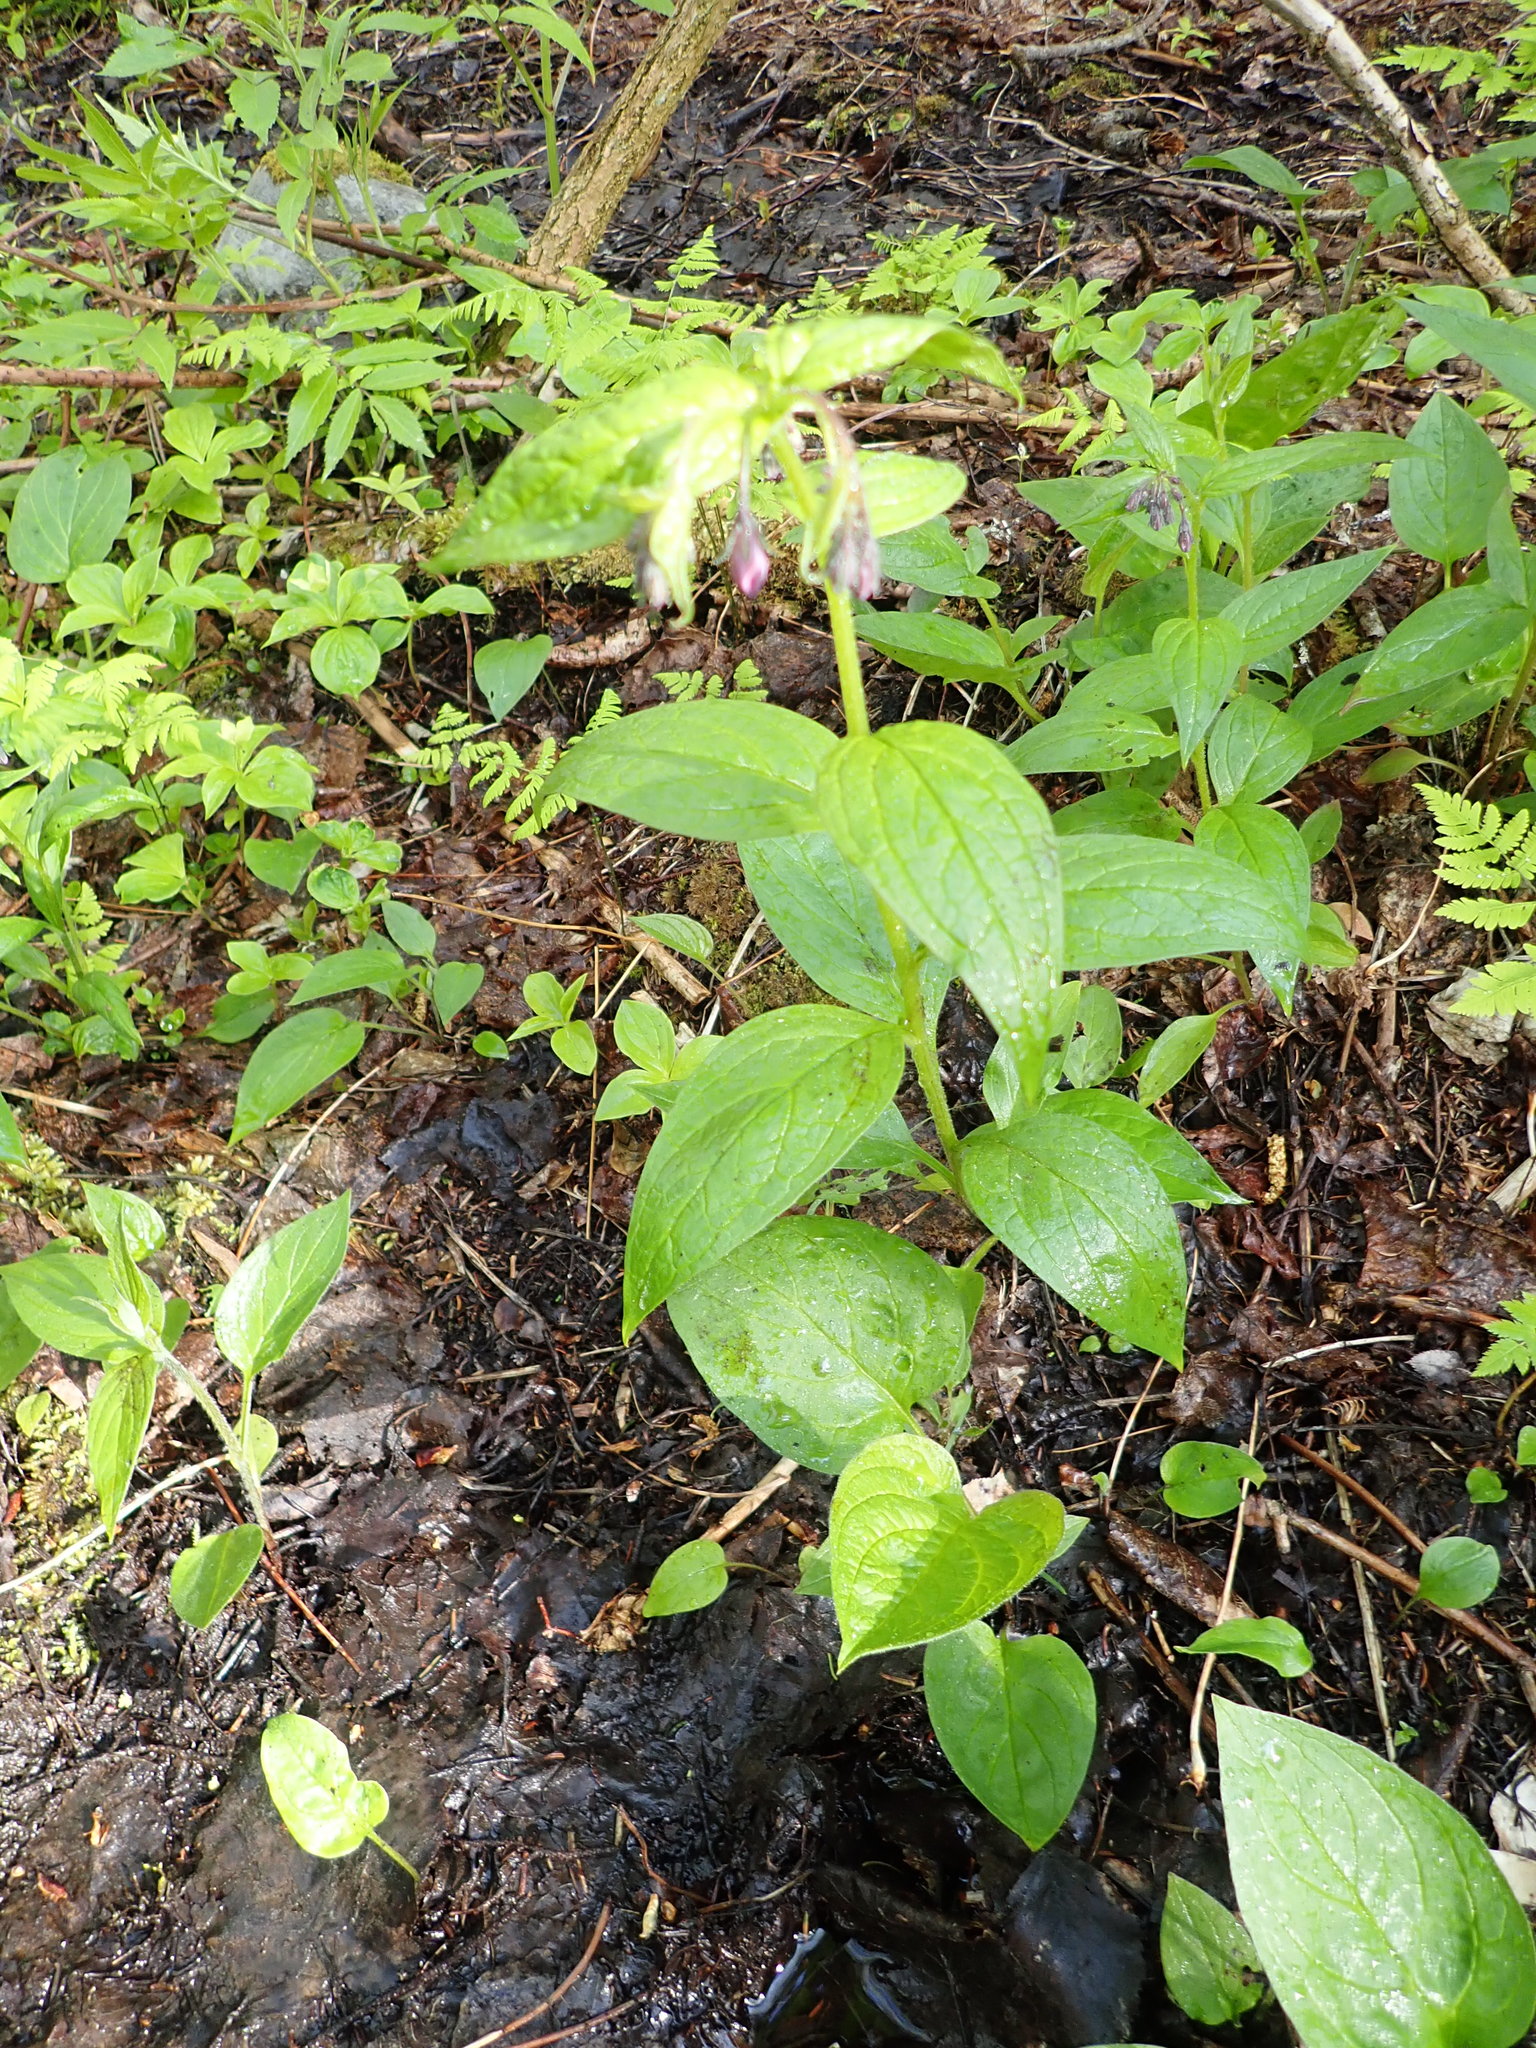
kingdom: Plantae
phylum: Tracheophyta
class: Magnoliopsida
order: Boraginales
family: Boraginaceae
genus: Mertensia
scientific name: Mertensia paniculata
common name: Panicled bluebells
